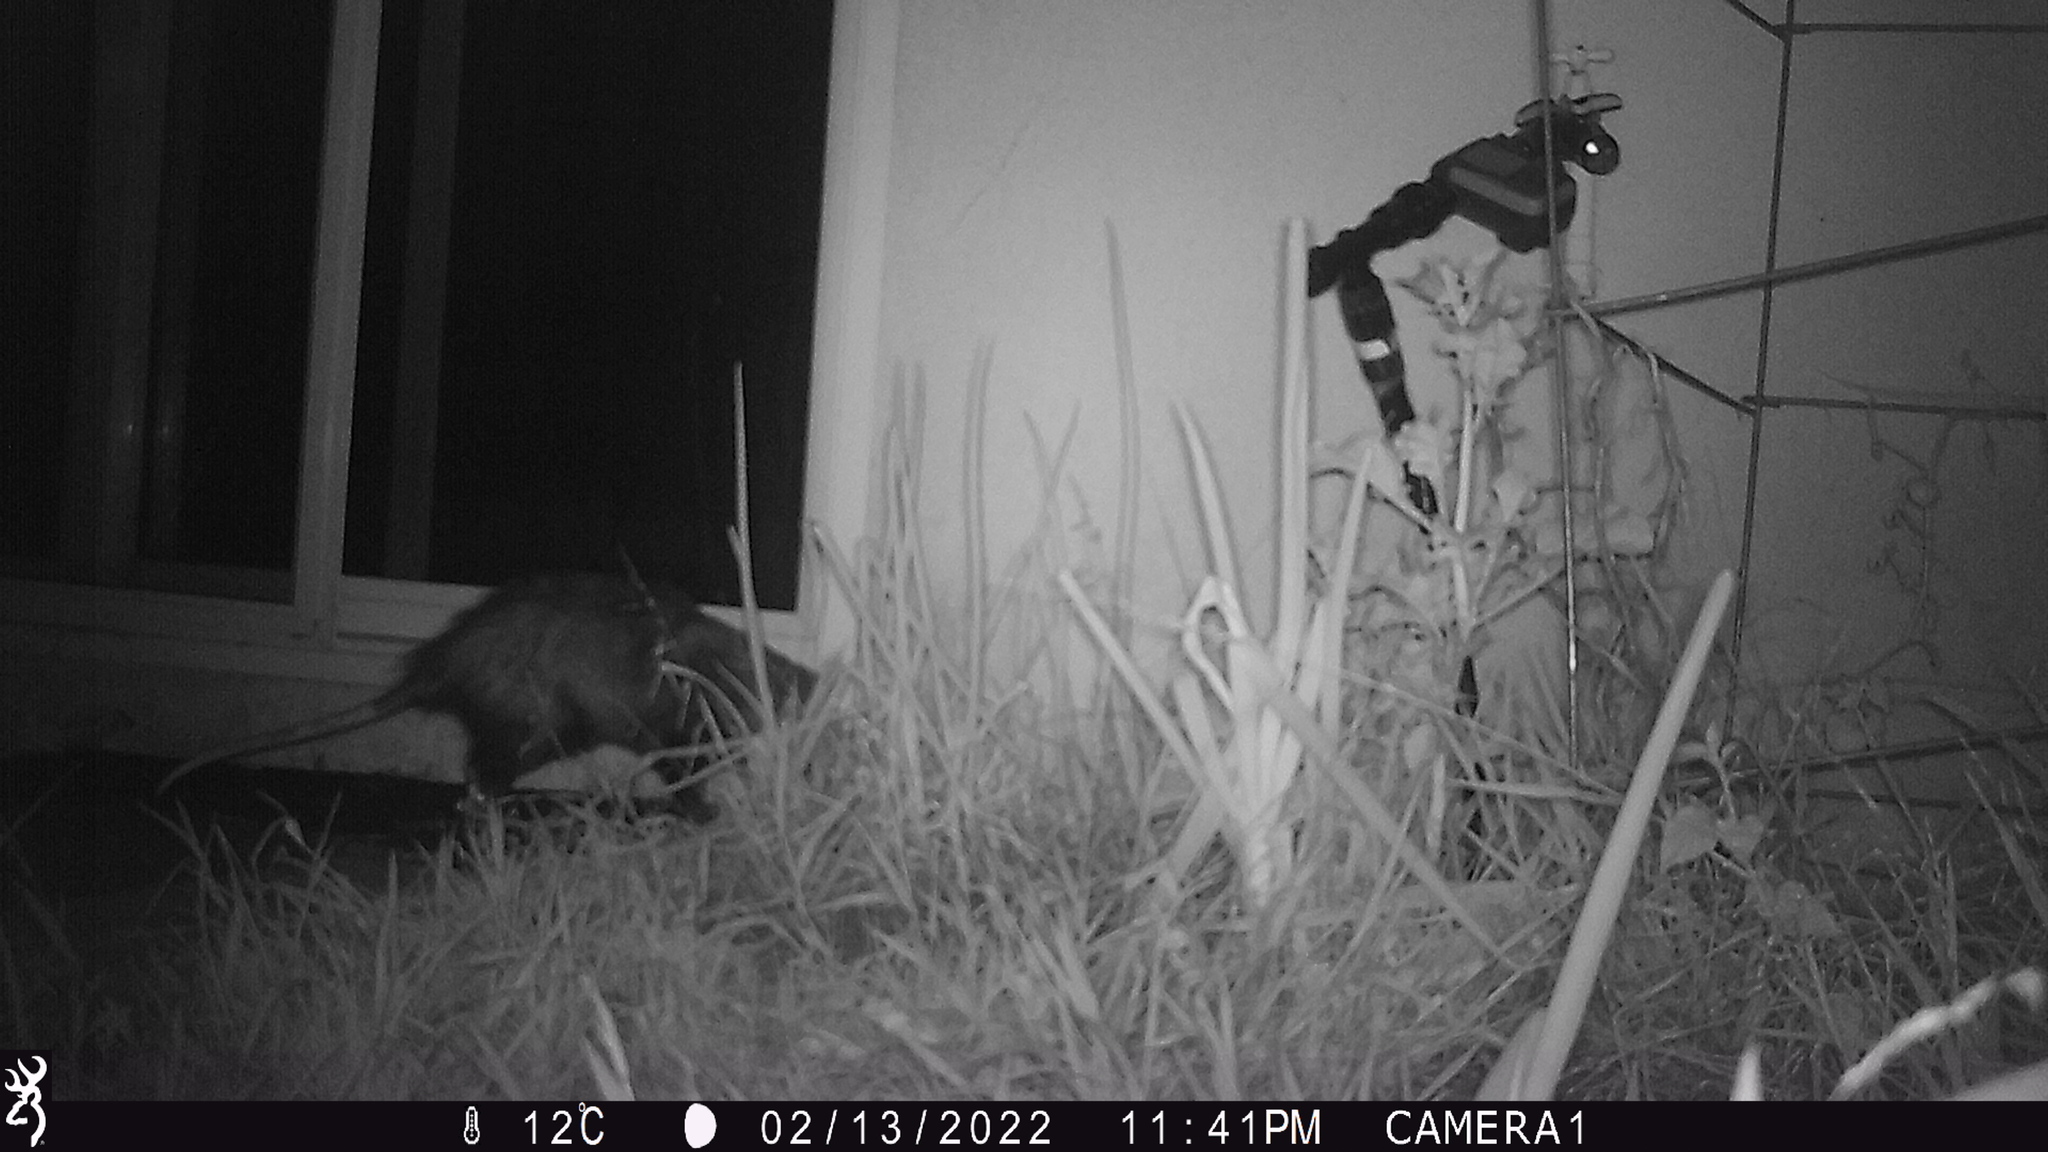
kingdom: Animalia
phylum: Chordata
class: Mammalia
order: Didelphimorphia
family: Didelphidae
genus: Didelphis
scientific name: Didelphis virginiana
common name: Virginia opossum
